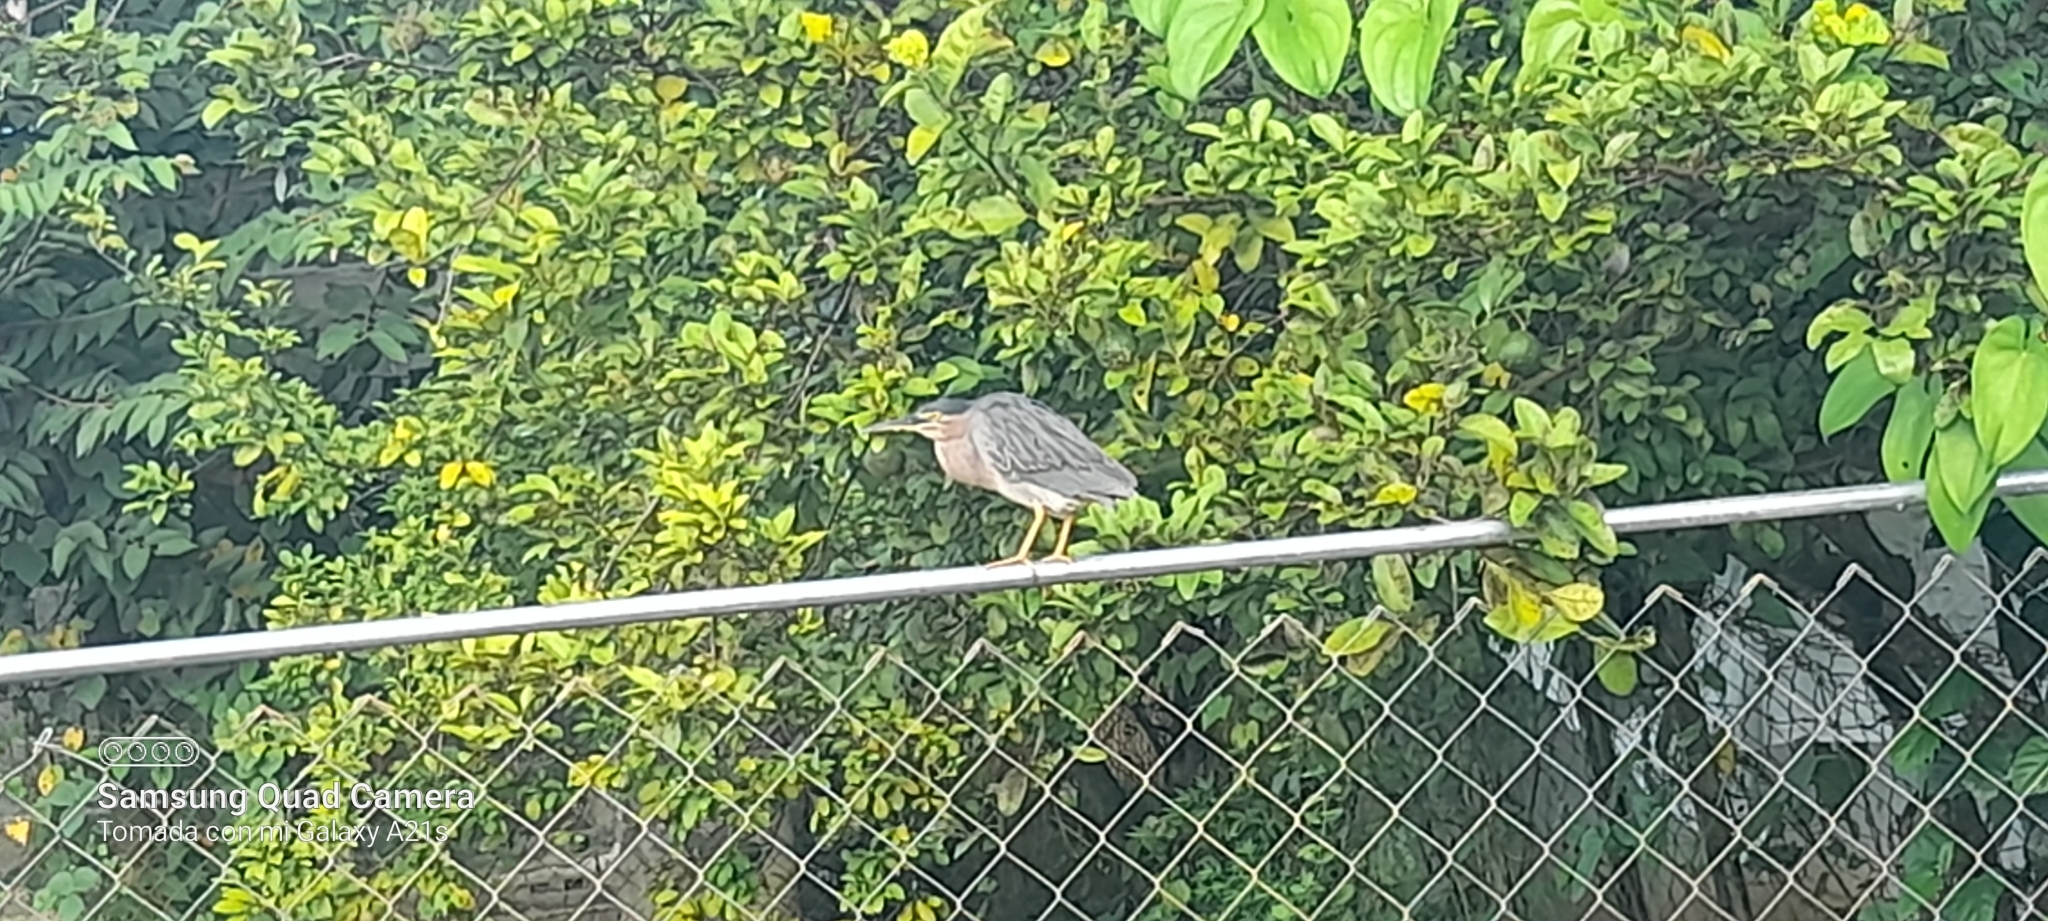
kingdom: Animalia
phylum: Chordata
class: Aves
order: Pelecaniformes
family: Ardeidae
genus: Butorides
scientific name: Butorides virescens
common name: Green heron
